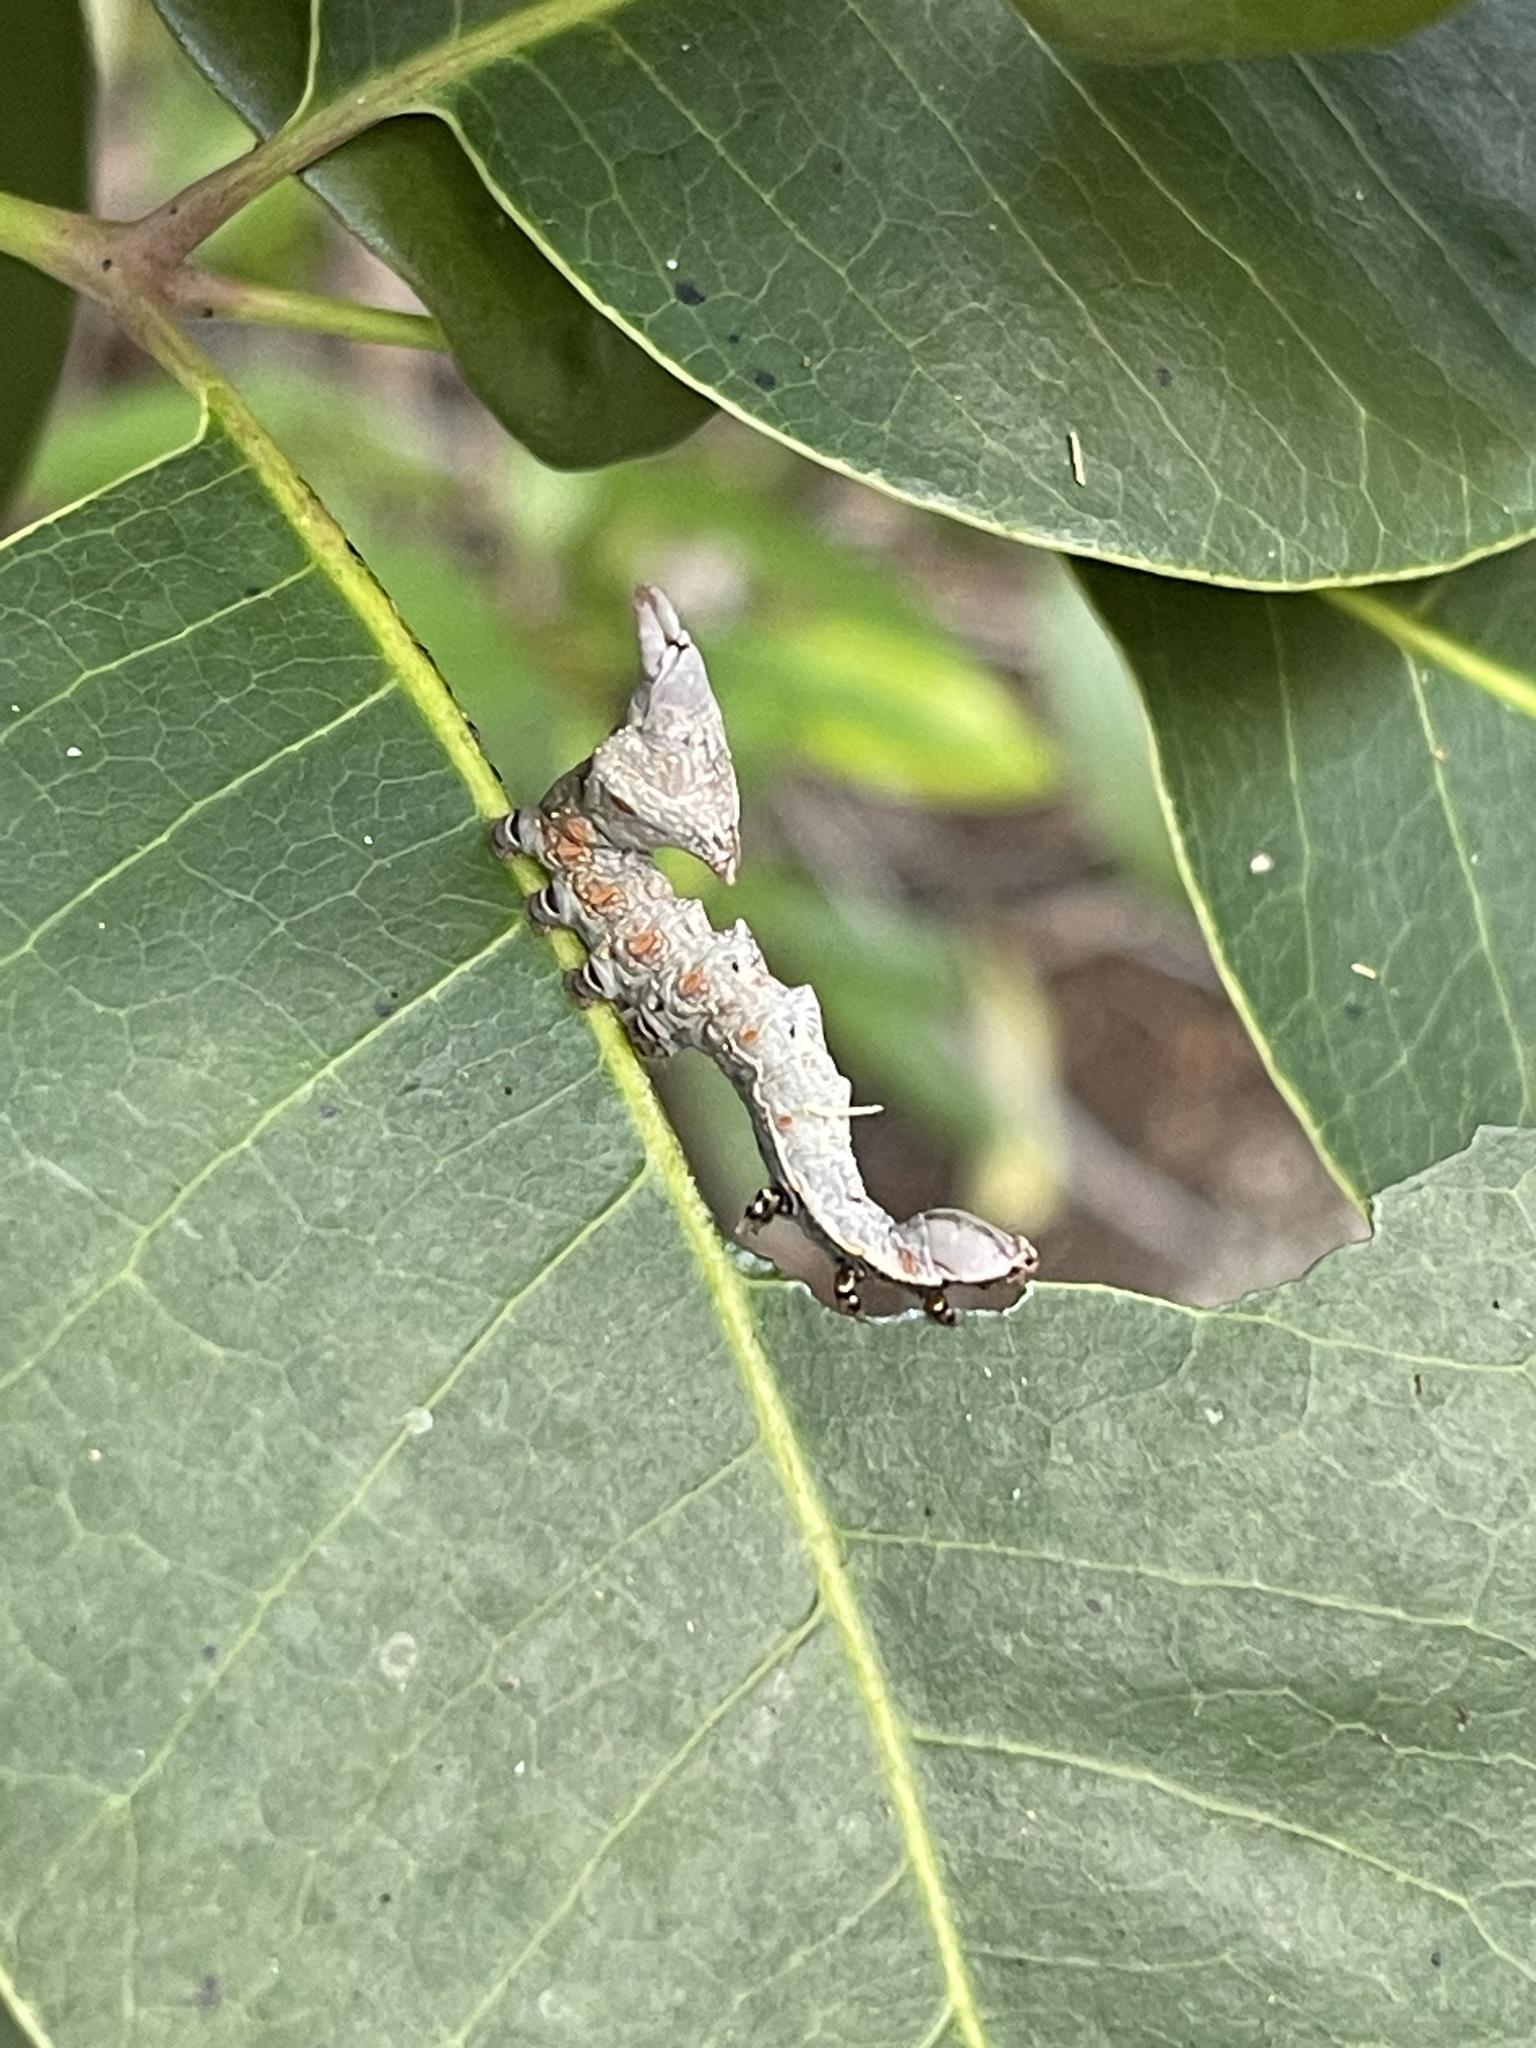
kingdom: Animalia
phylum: Arthropoda
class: Insecta
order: Lepidoptera
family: Notodontidae
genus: Nystalea
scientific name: Nystalea eutalanta
